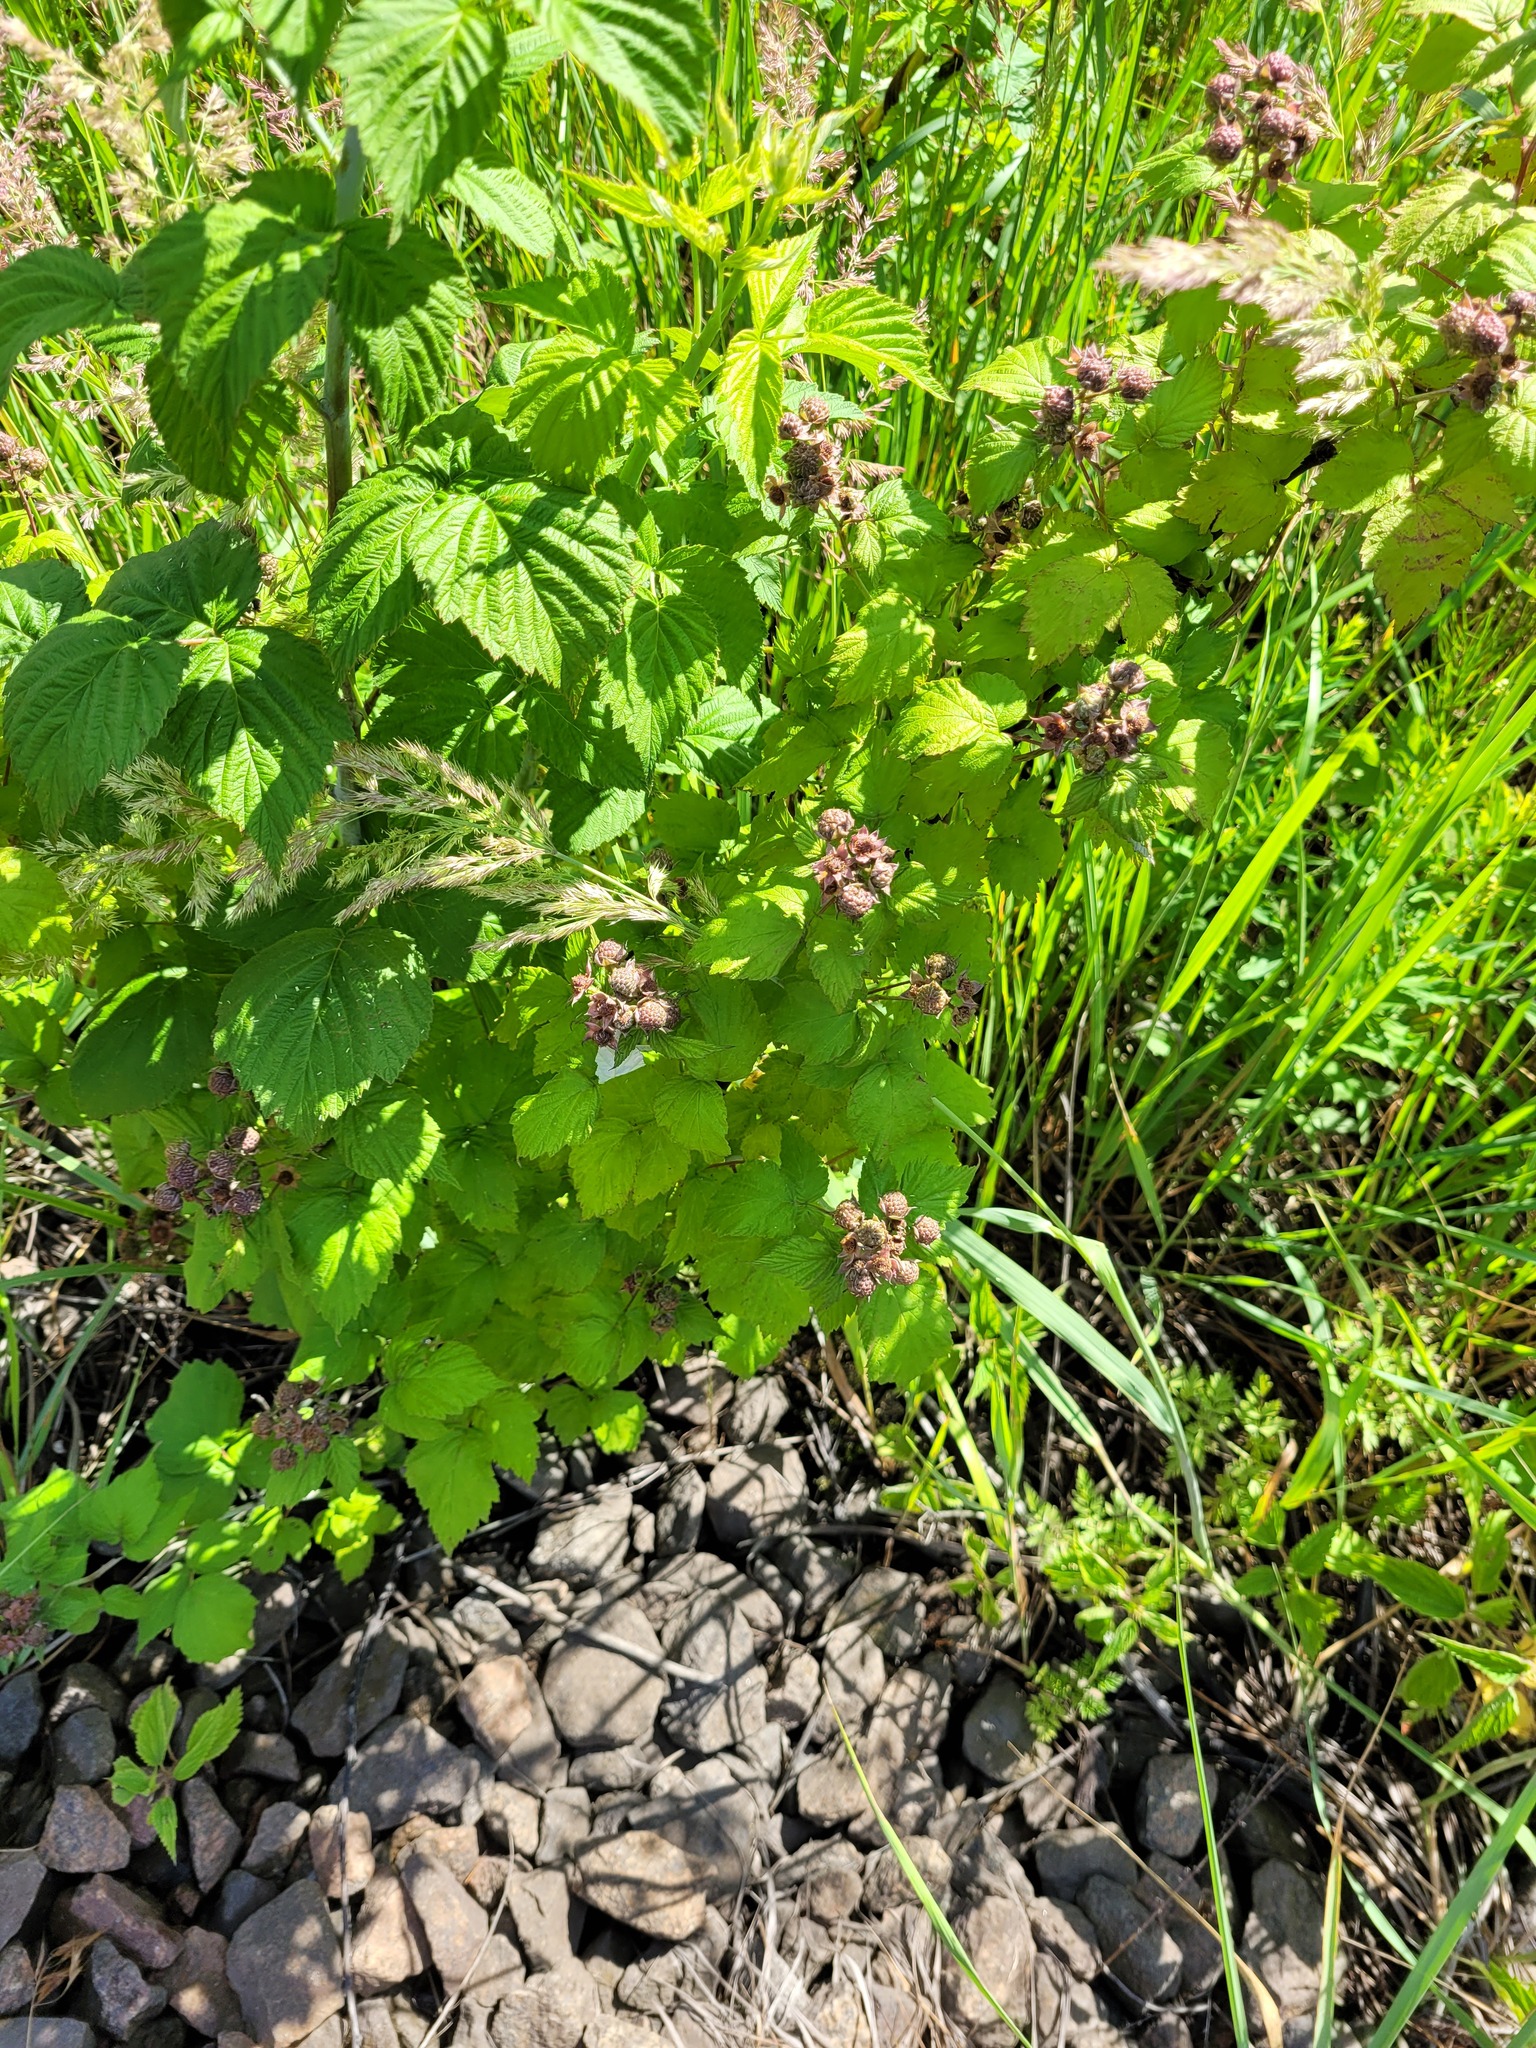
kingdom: Plantae
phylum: Tracheophyta
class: Magnoliopsida
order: Rosales
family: Rosaceae
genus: Rubus
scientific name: Rubus occidentalis
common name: Black raspberry
